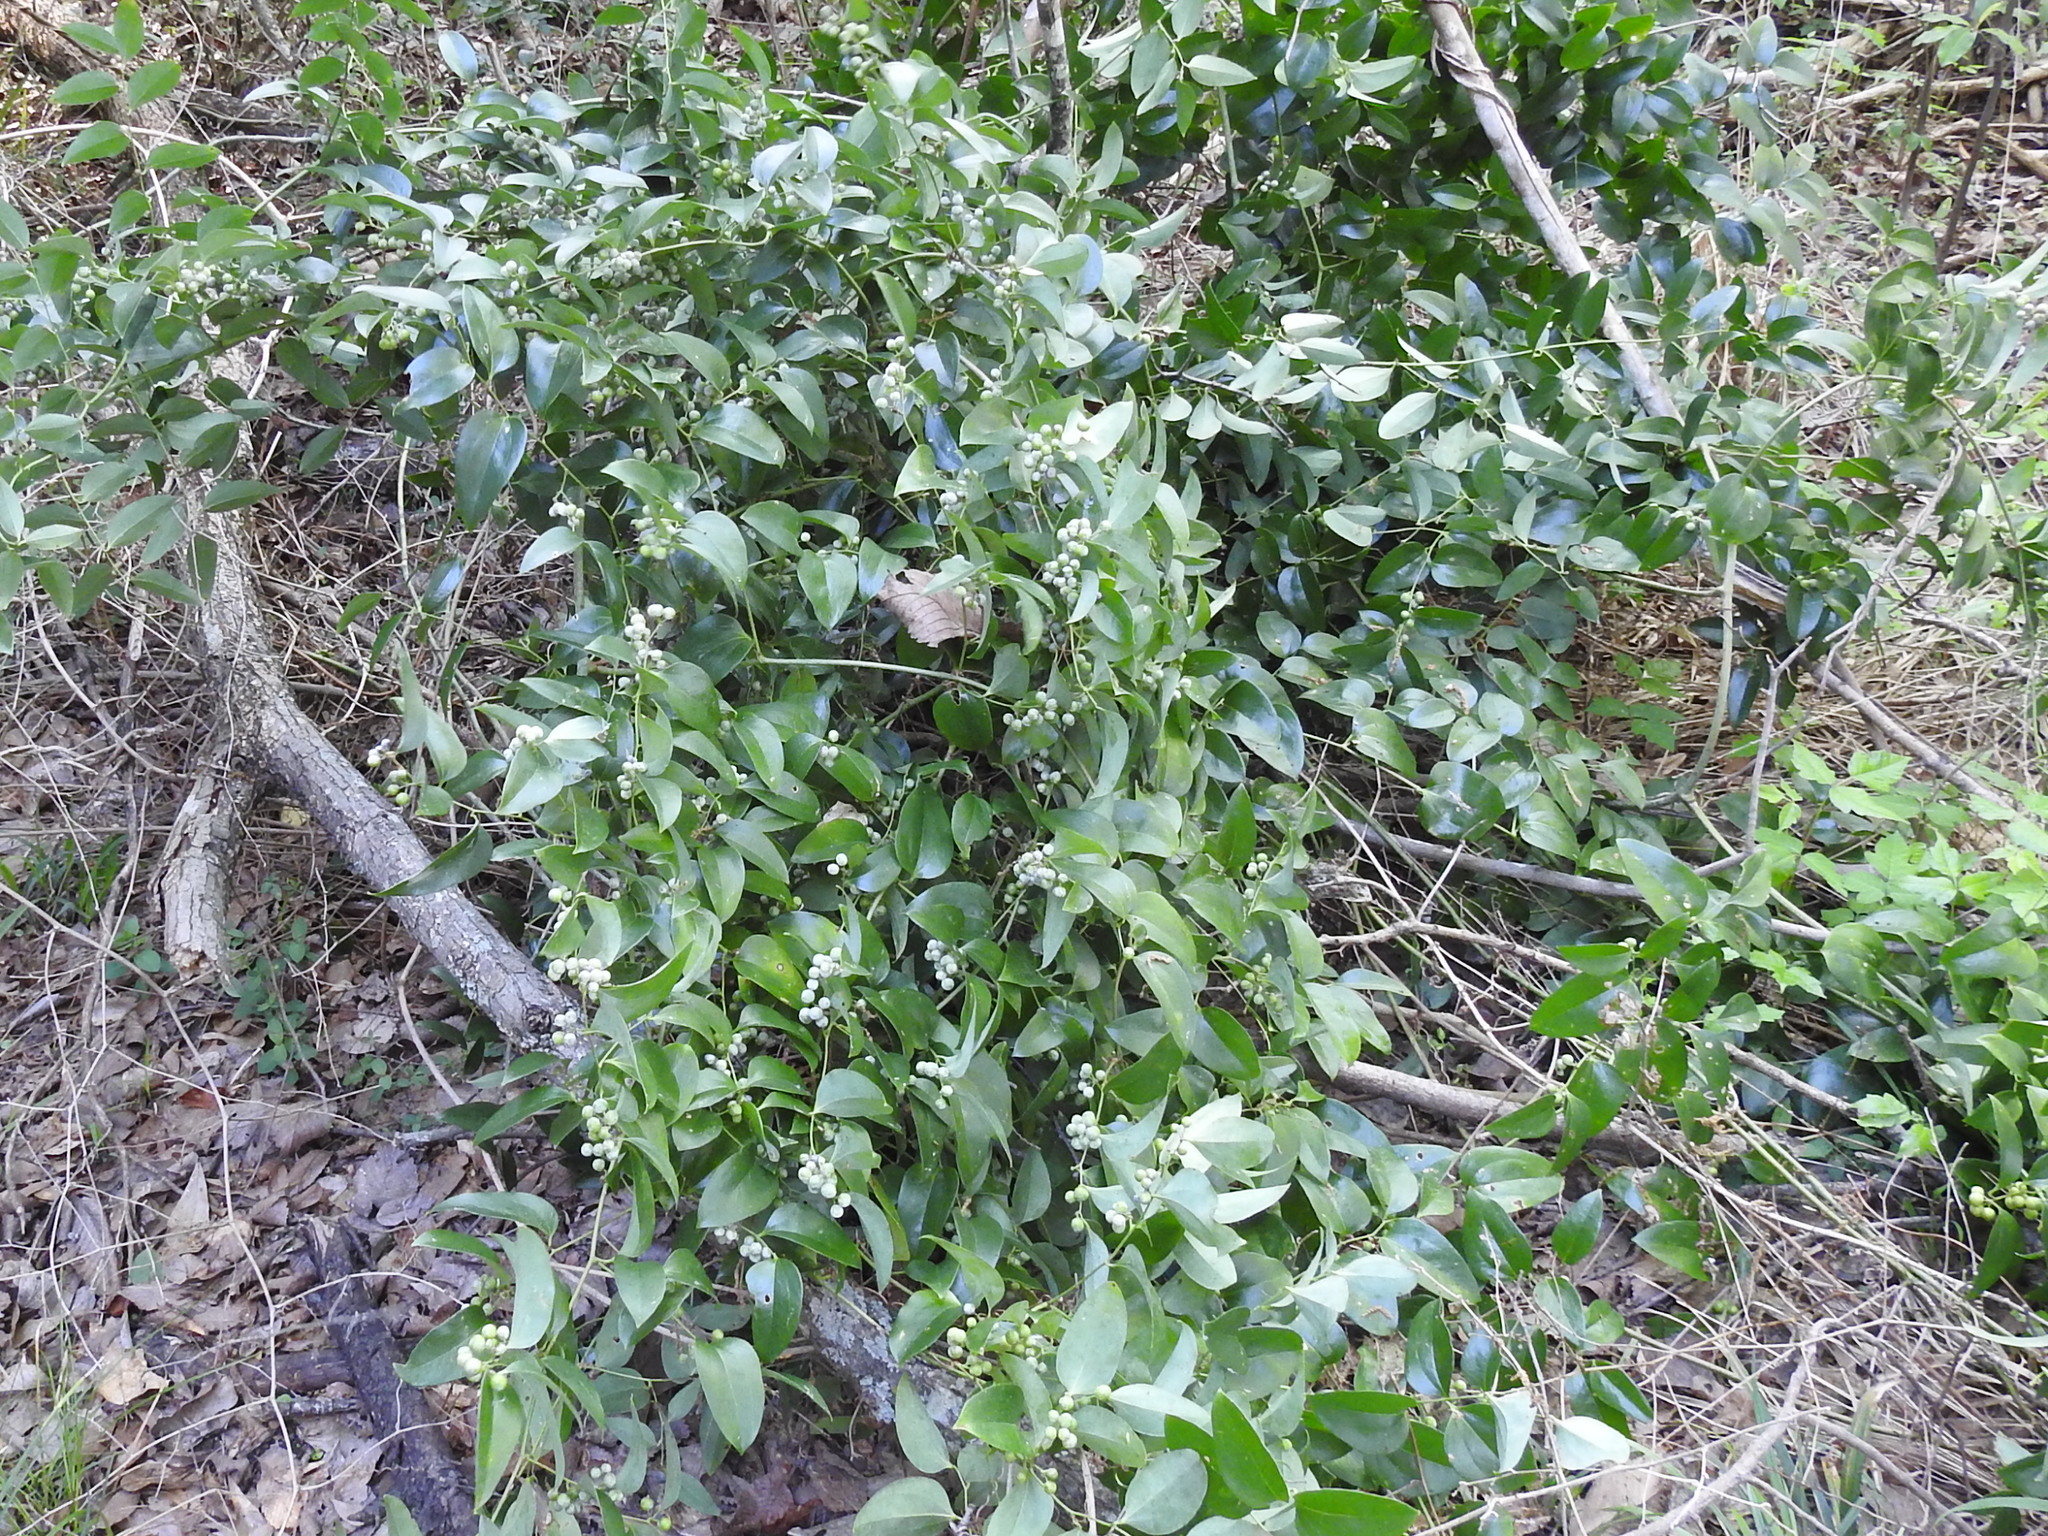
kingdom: Plantae
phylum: Tracheophyta
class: Liliopsida
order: Liliales
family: Smilacaceae
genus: Smilax
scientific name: Smilax maritima
